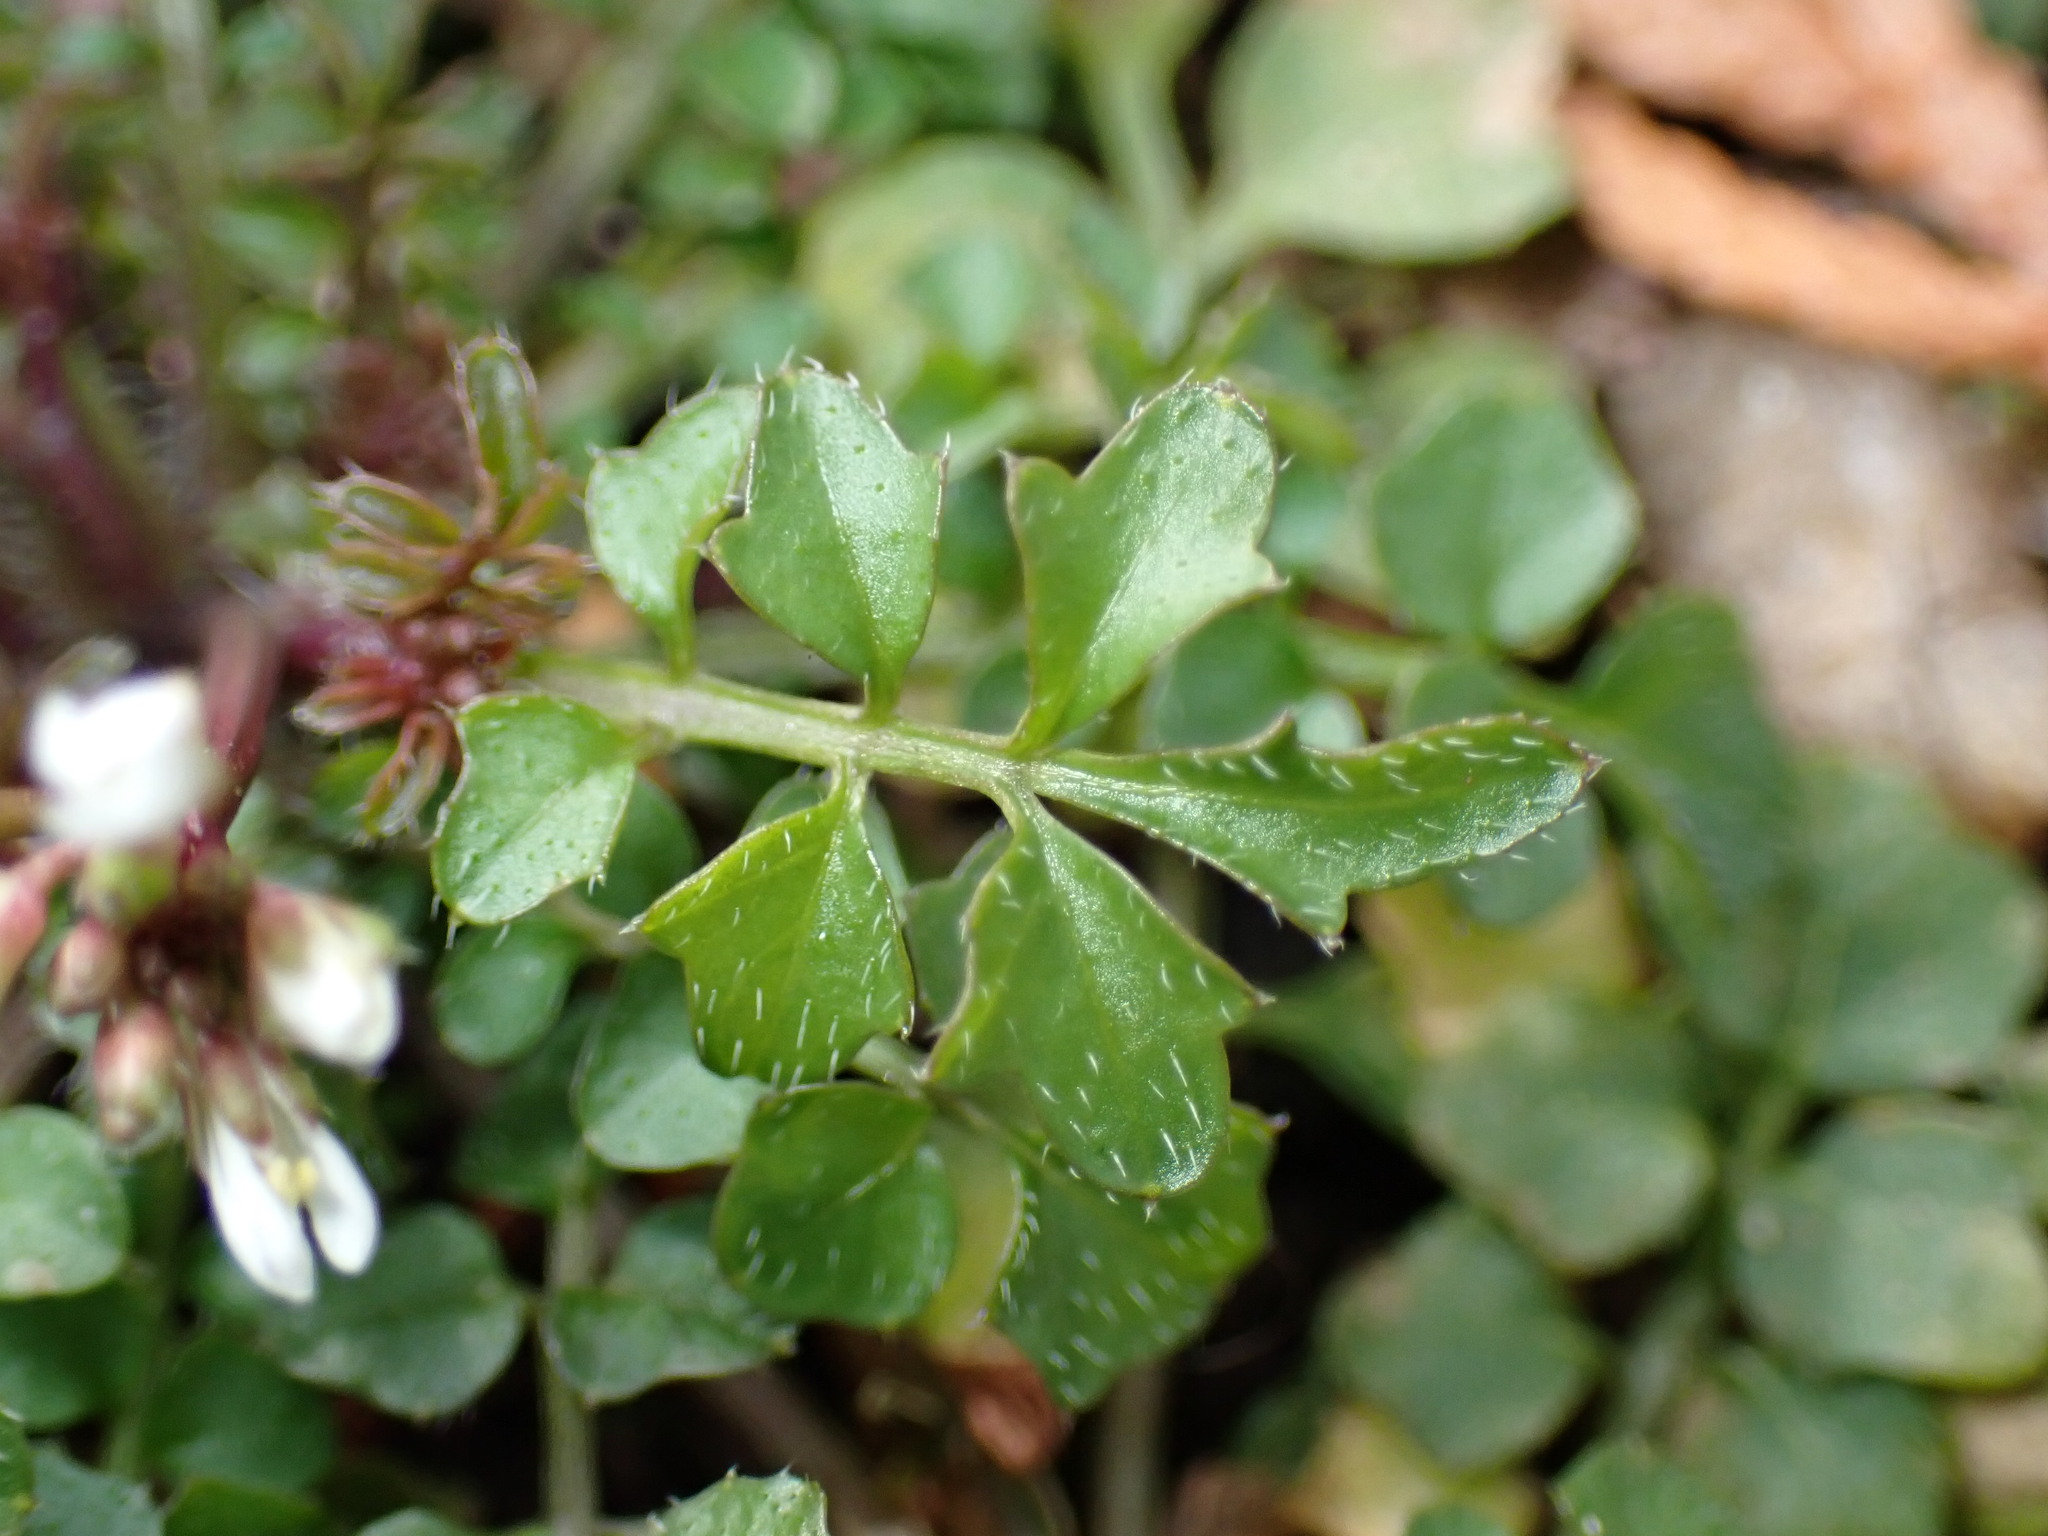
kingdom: Plantae
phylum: Tracheophyta
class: Magnoliopsida
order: Brassicales
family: Brassicaceae
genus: Cardamine
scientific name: Cardamine hirsuta
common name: Hairy bittercress
